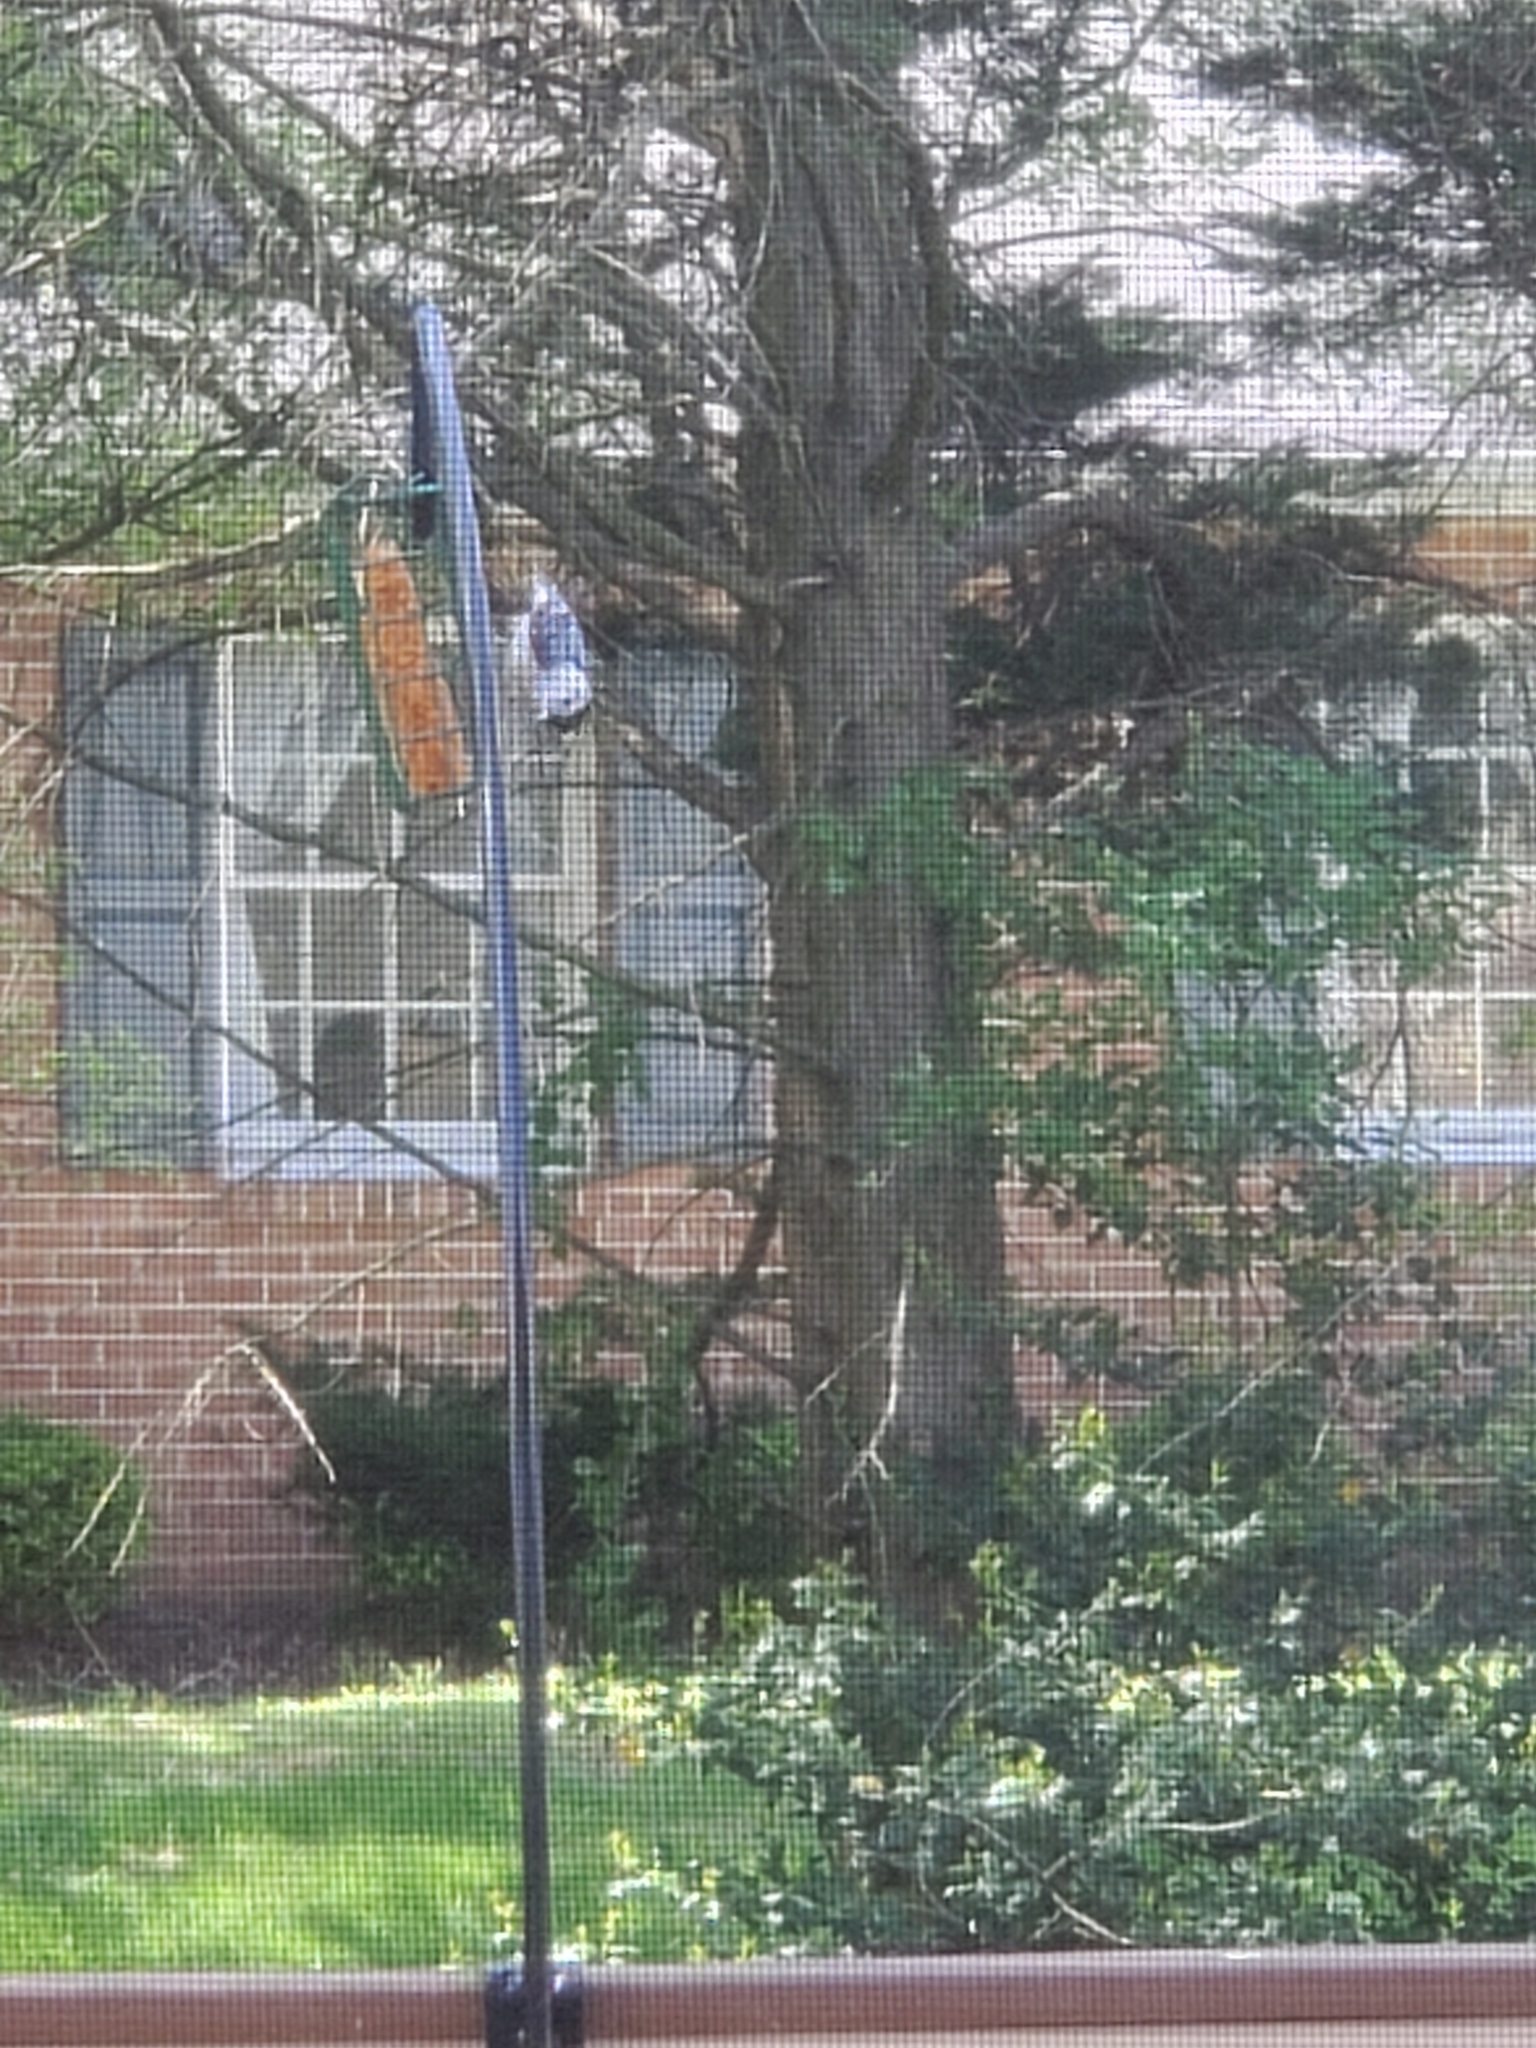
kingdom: Animalia
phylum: Chordata
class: Aves
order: Passeriformes
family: Sittidae
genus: Sitta
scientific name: Sitta carolinensis
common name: White-breasted nuthatch
